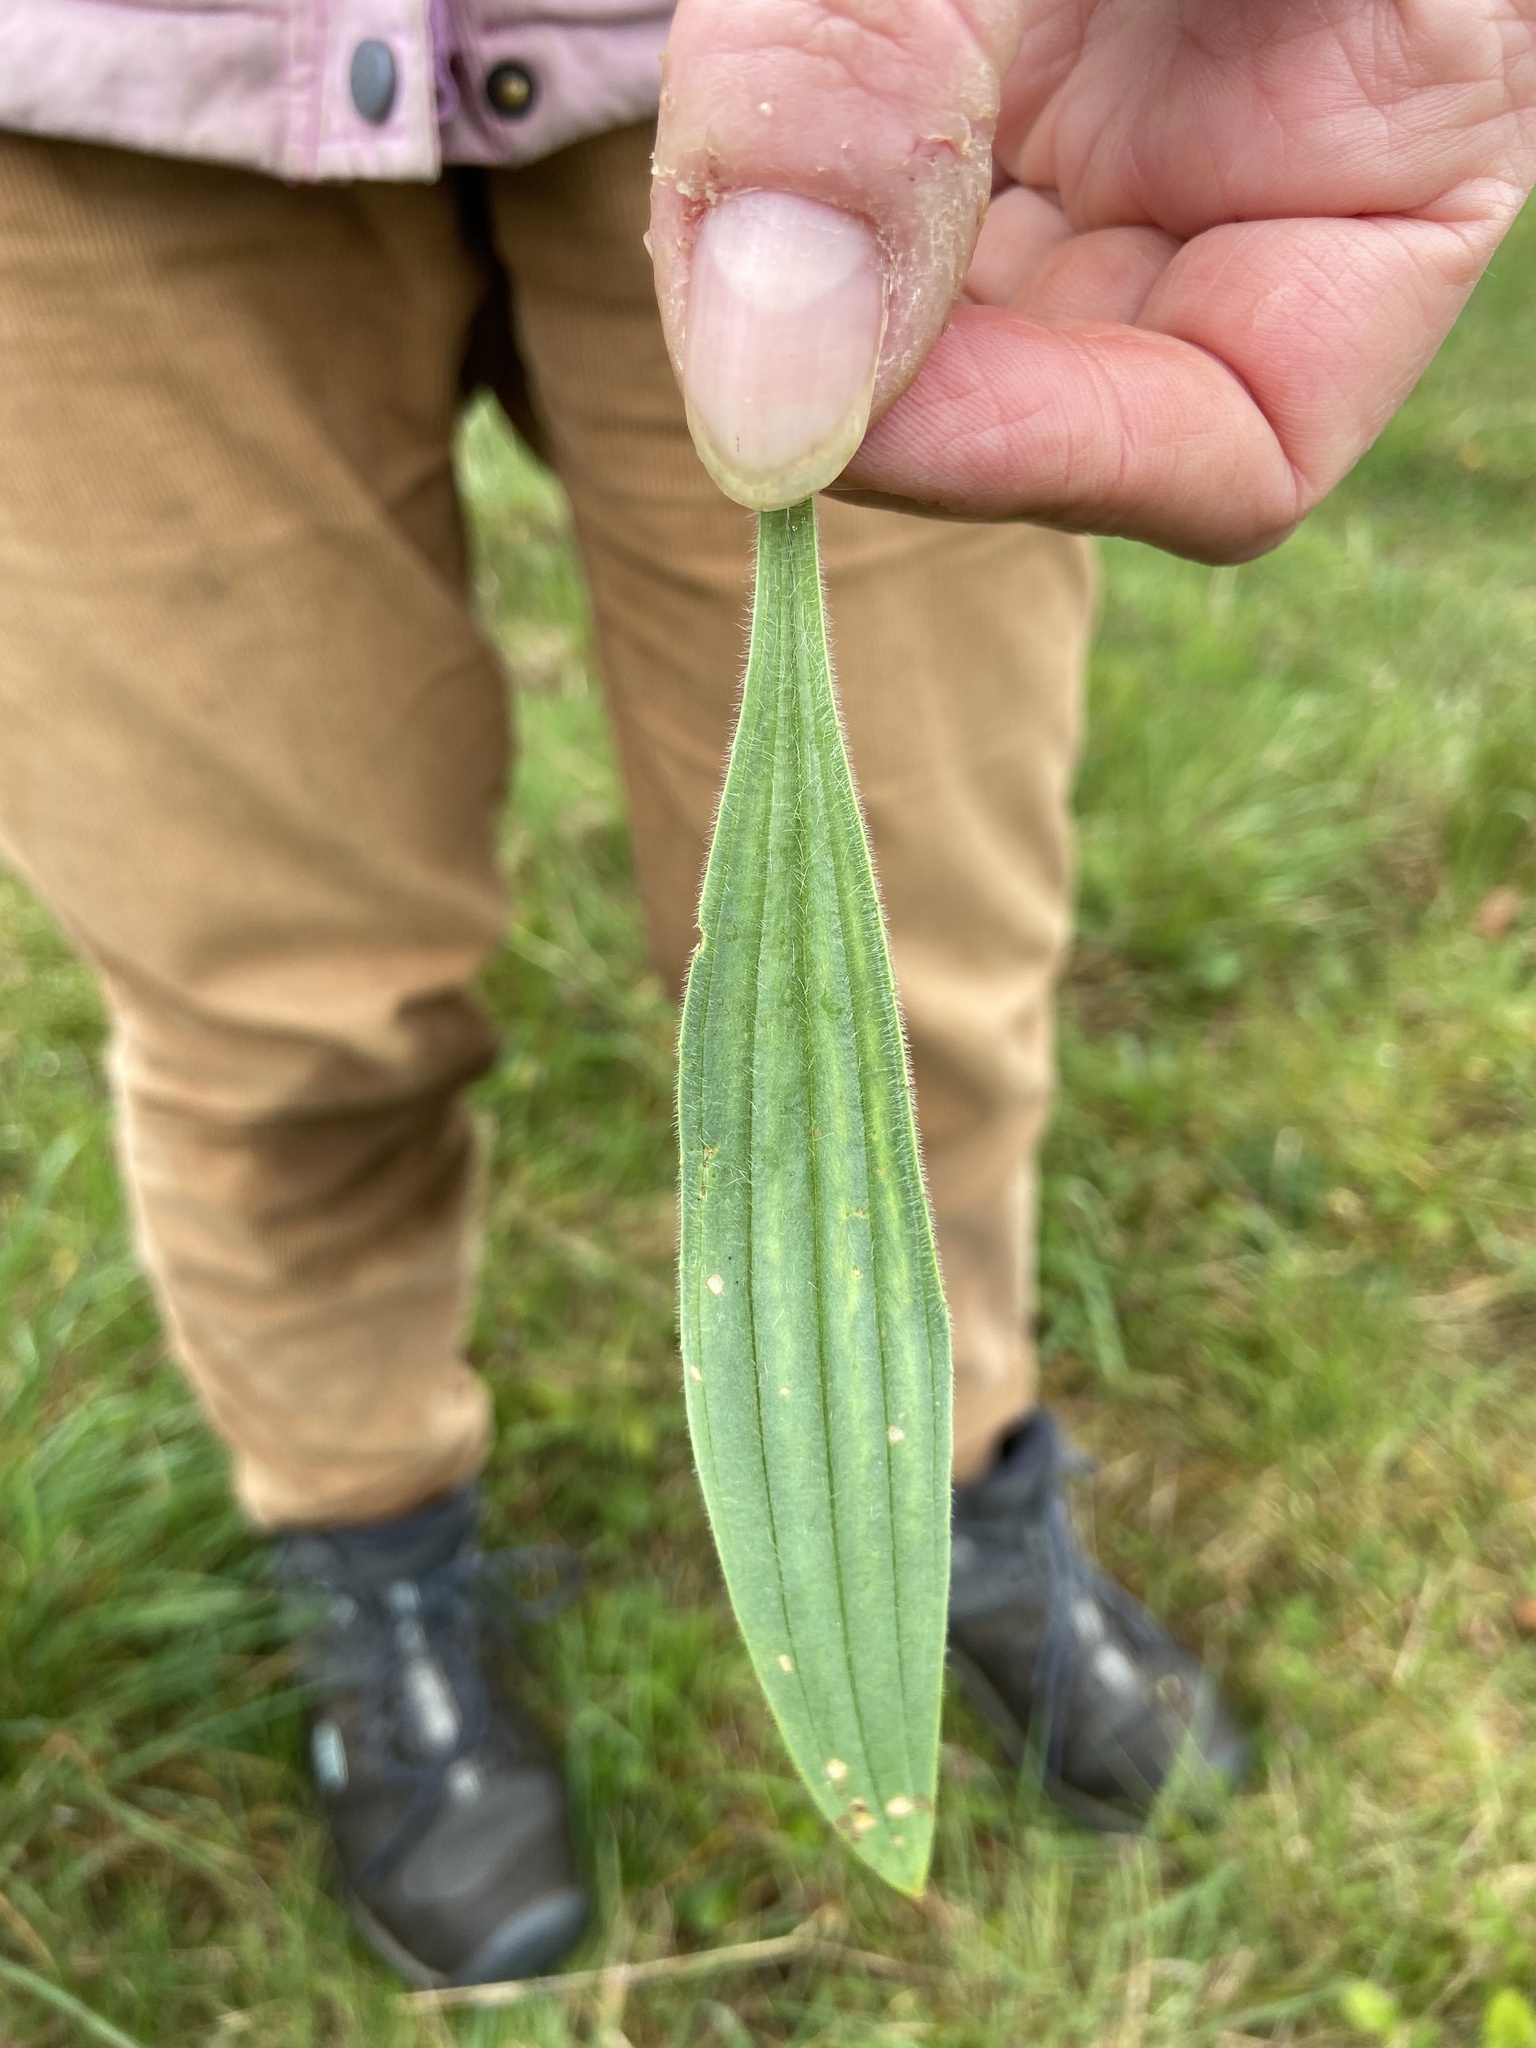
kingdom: Plantae
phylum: Tracheophyta
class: Magnoliopsida
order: Lamiales
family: Plantaginaceae
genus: Plantago
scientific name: Plantago lanceolata
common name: Ribwort plantain
